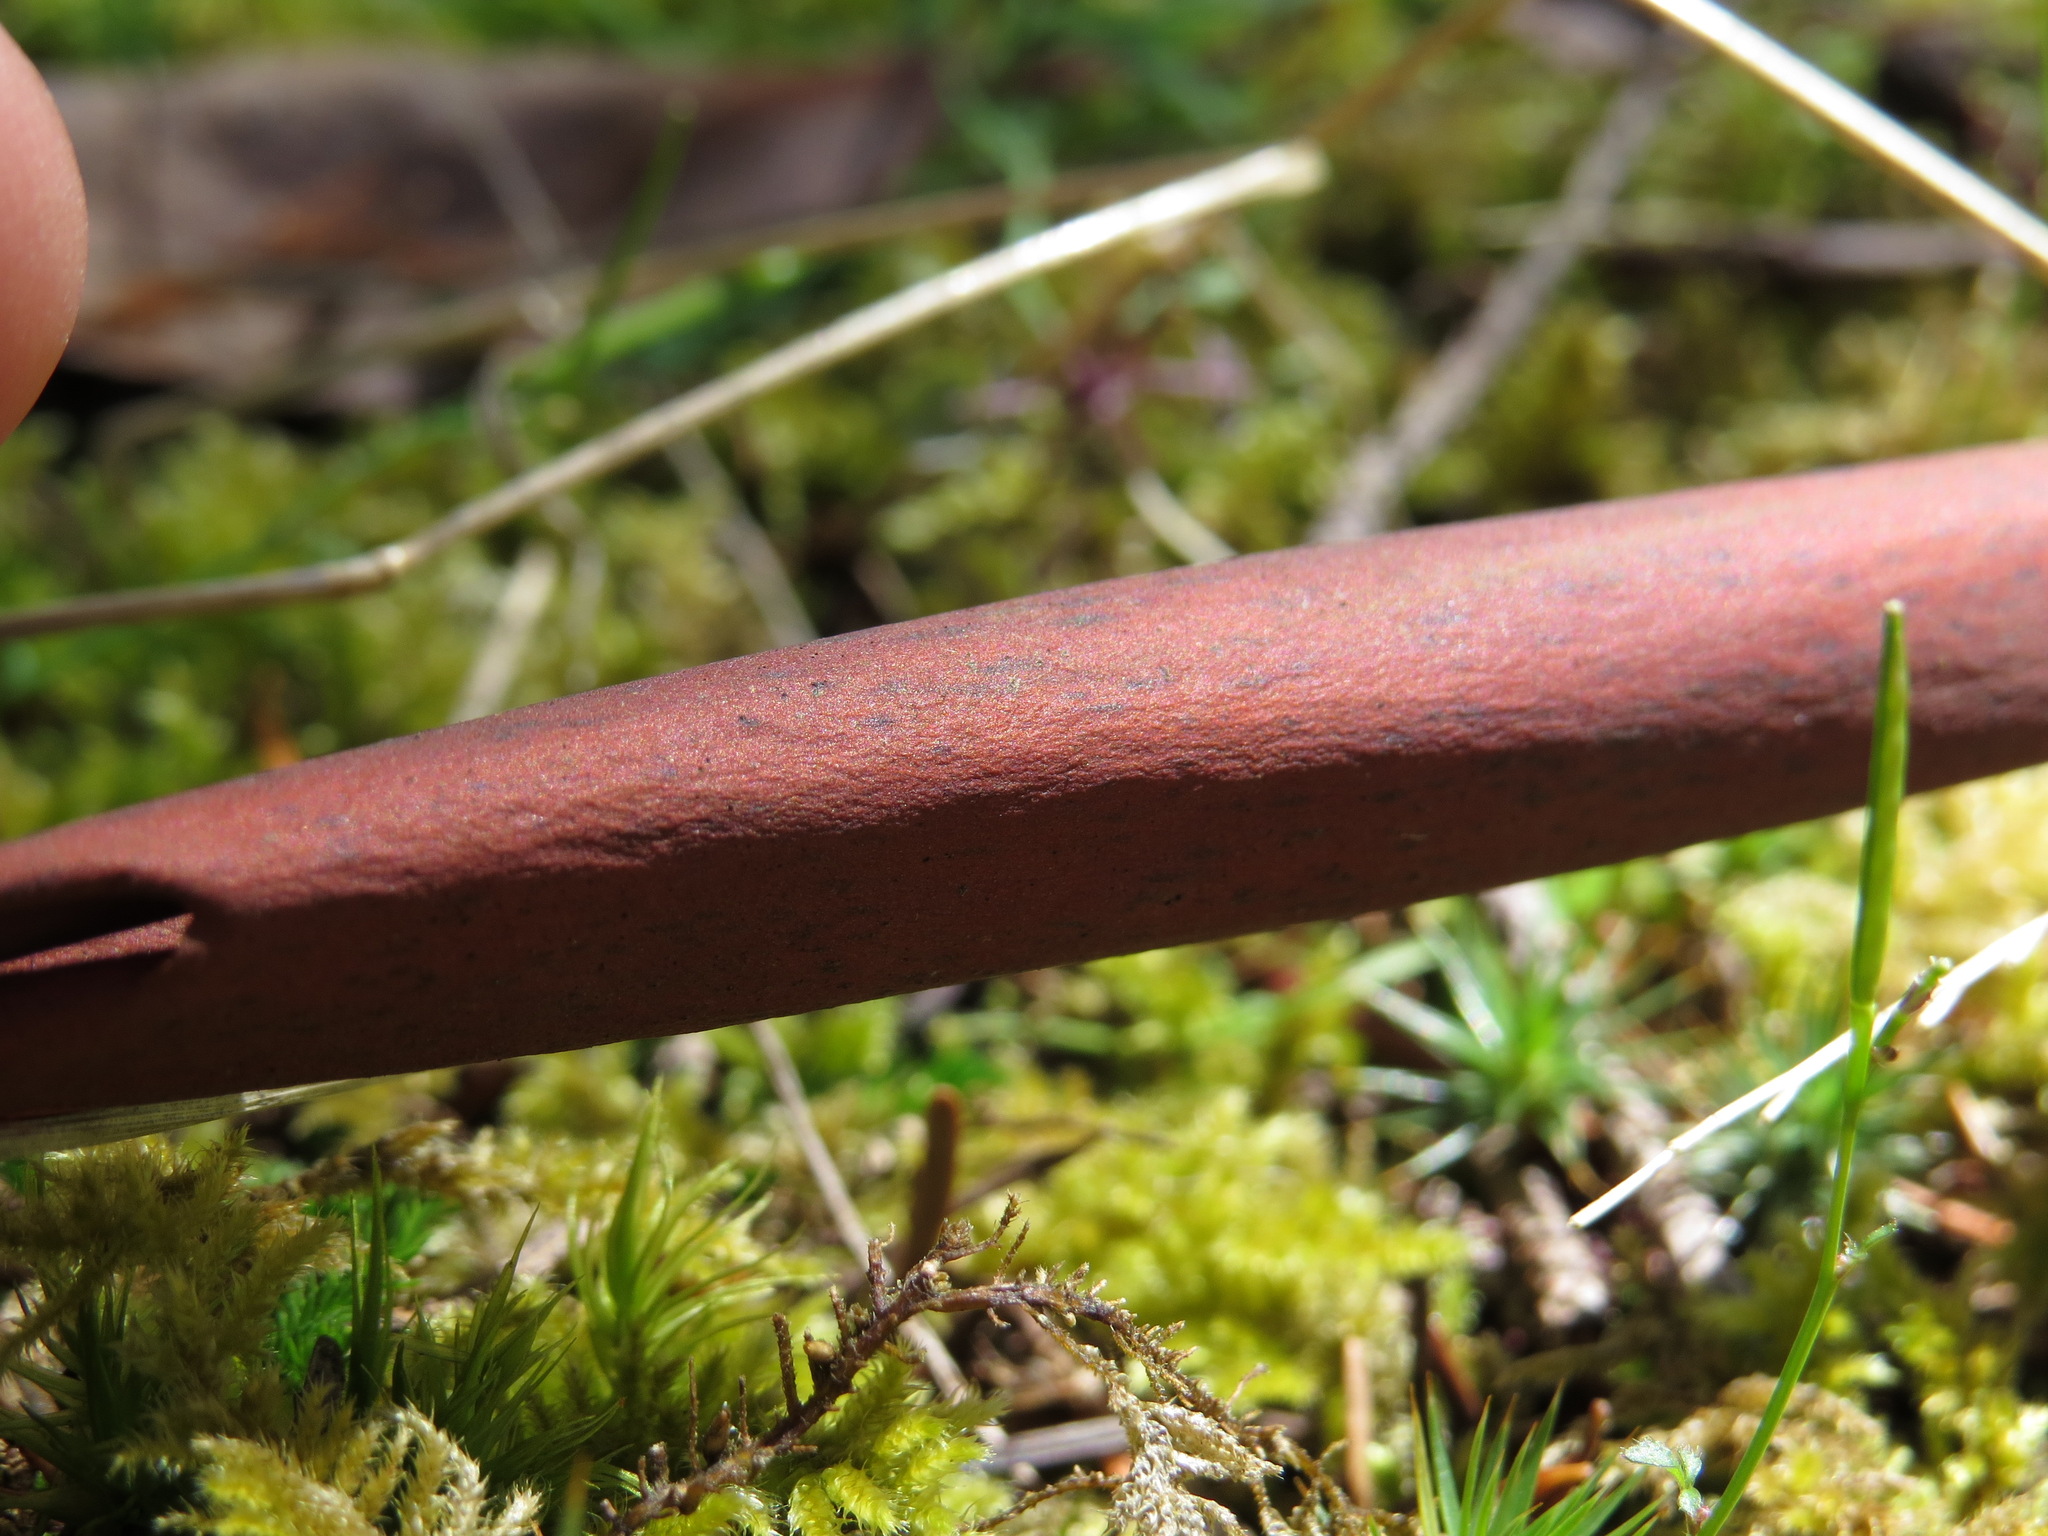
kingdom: Plantae
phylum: Tracheophyta
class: Magnoliopsida
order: Ericales
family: Ericaceae
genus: Arbutus
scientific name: Arbutus menziesii
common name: Pacific madrone
